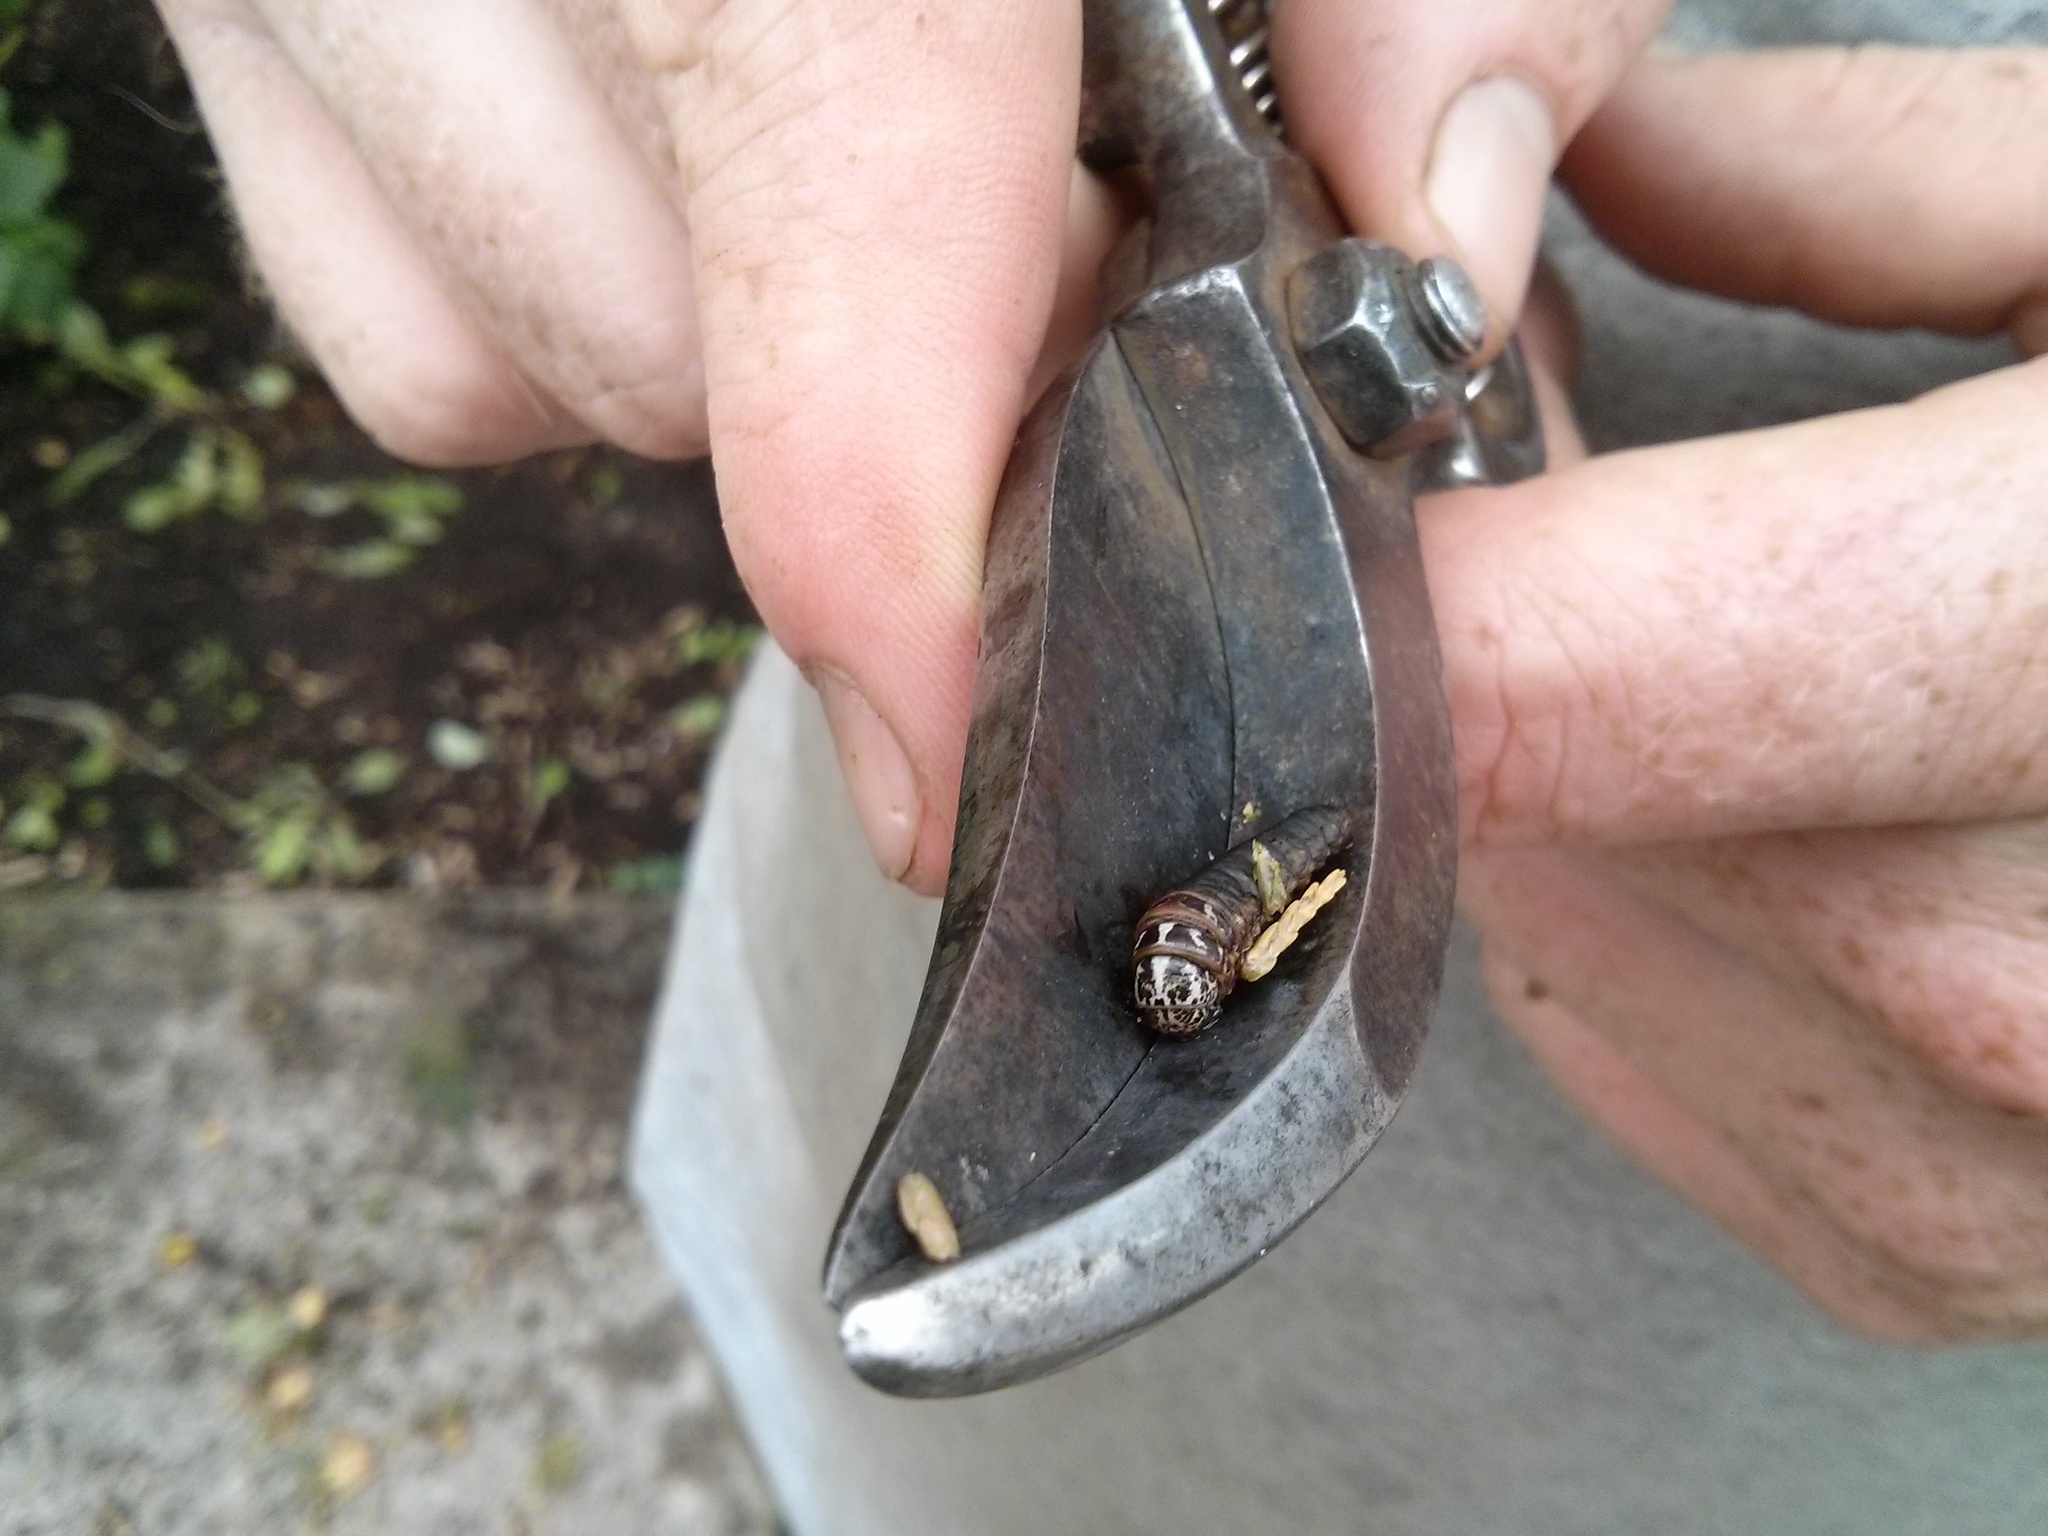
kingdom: Animalia
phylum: Arthropoda
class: Insecta
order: Lepidoptera
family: Psychidae
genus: Thyridopteryx
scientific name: Thyridopteryx ephemeraeformis
